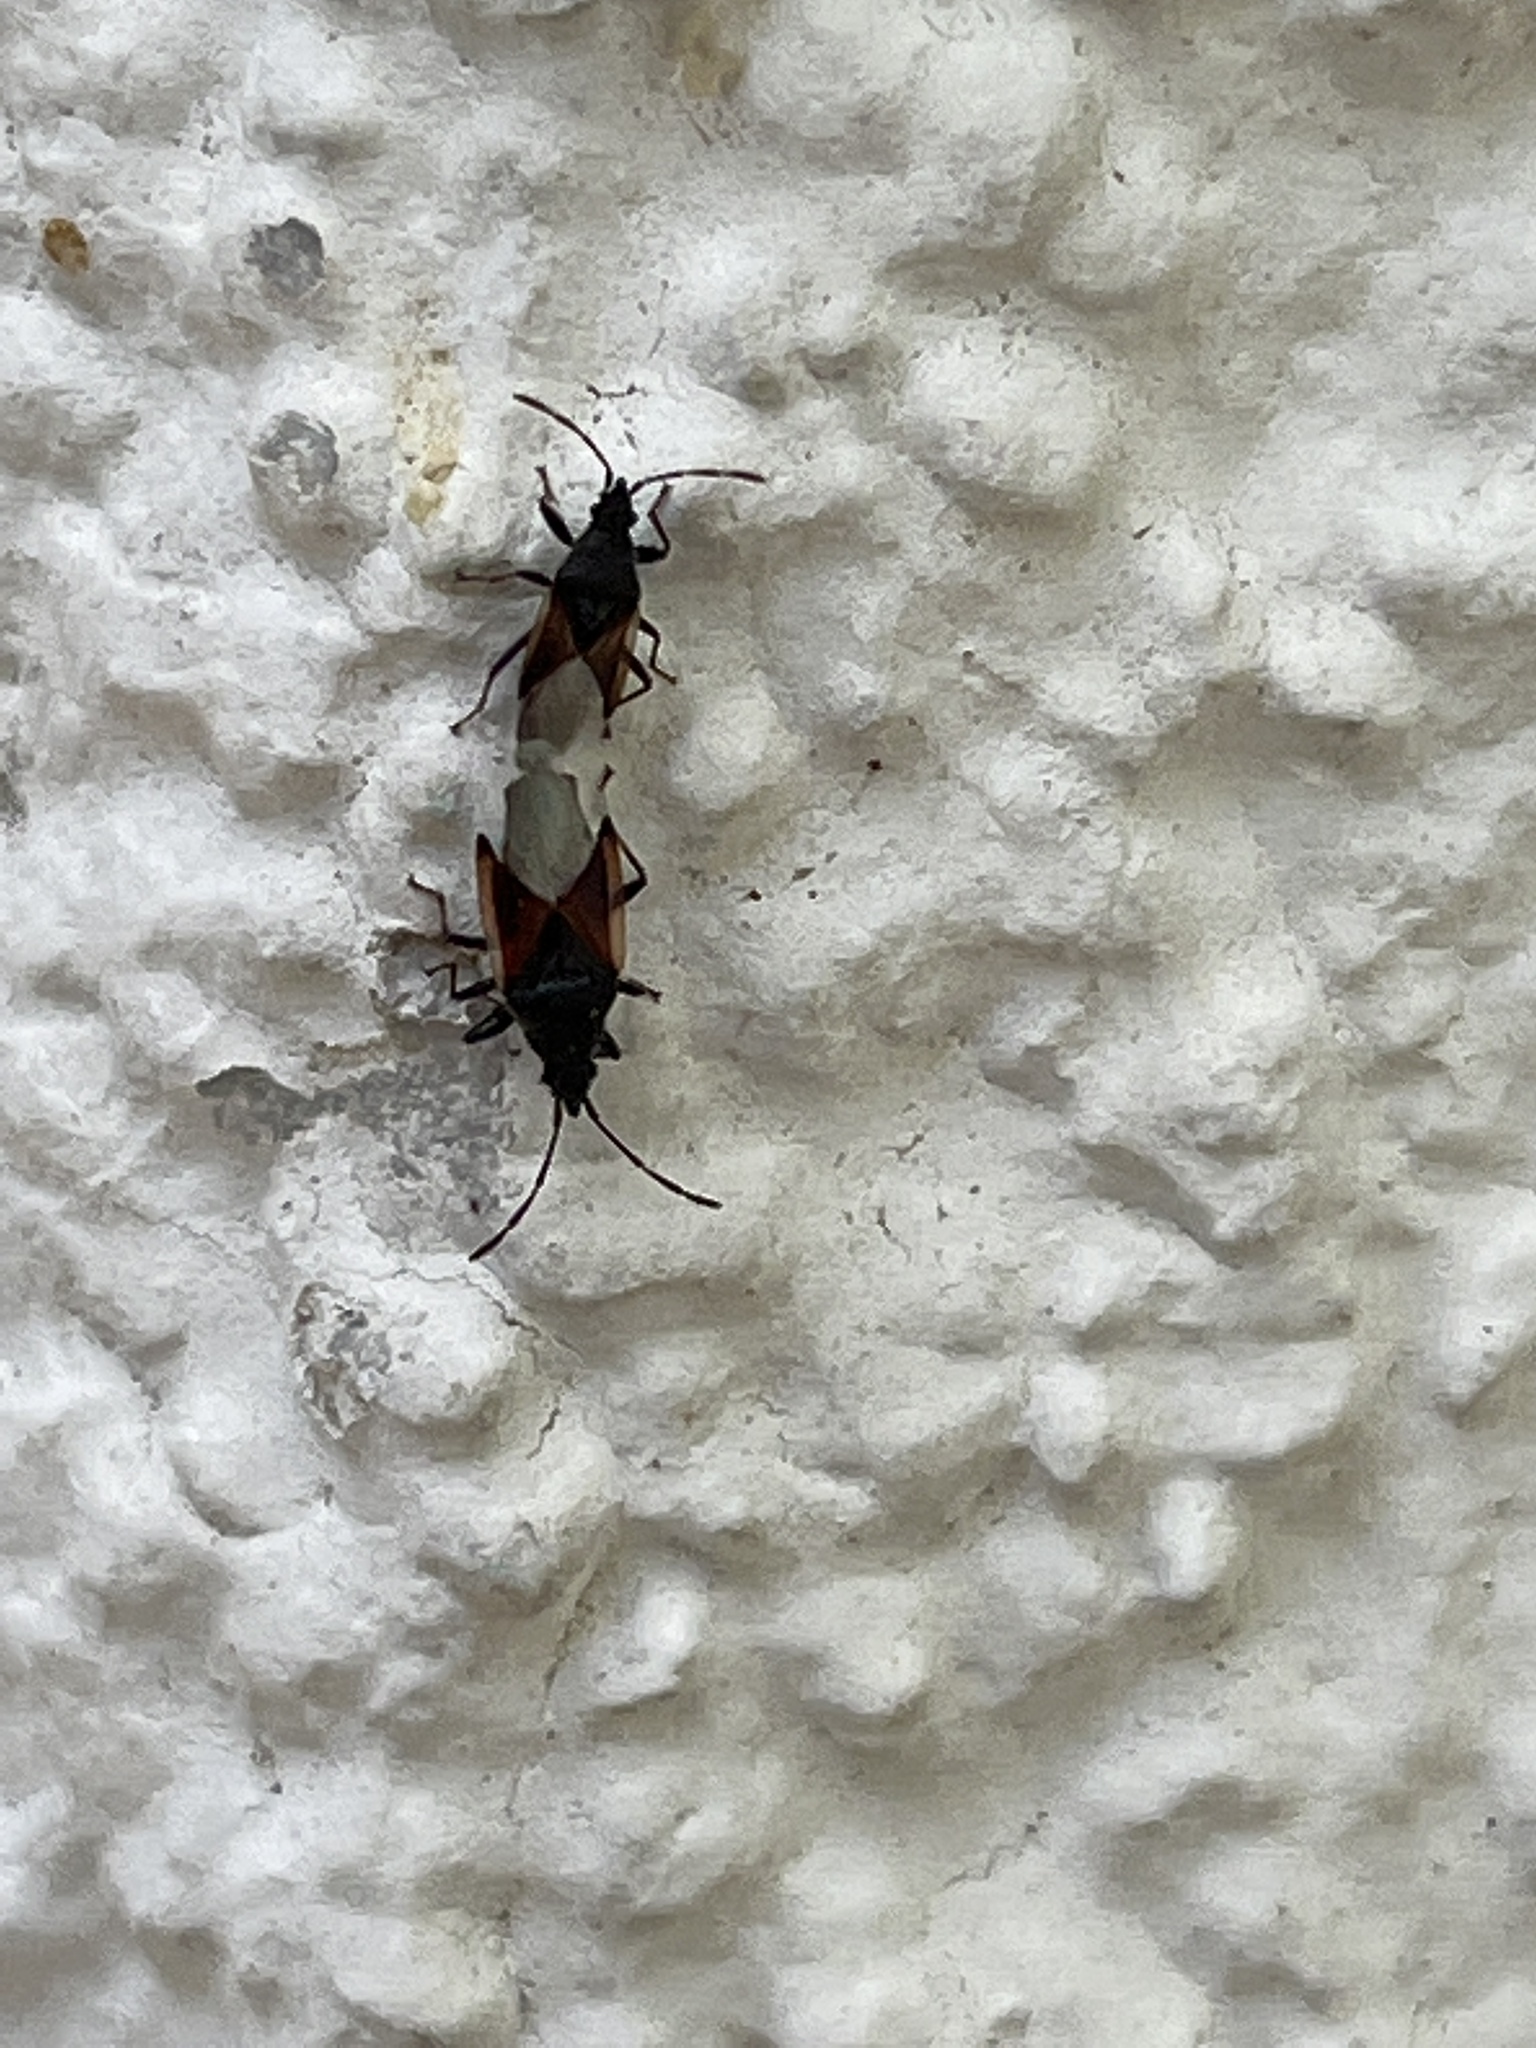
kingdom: Animalia
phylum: Arthropoda
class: Insecta
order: Hemiptera
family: Oxycarenidae
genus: Oxycarenus
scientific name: Oxycarenus lavaterae
